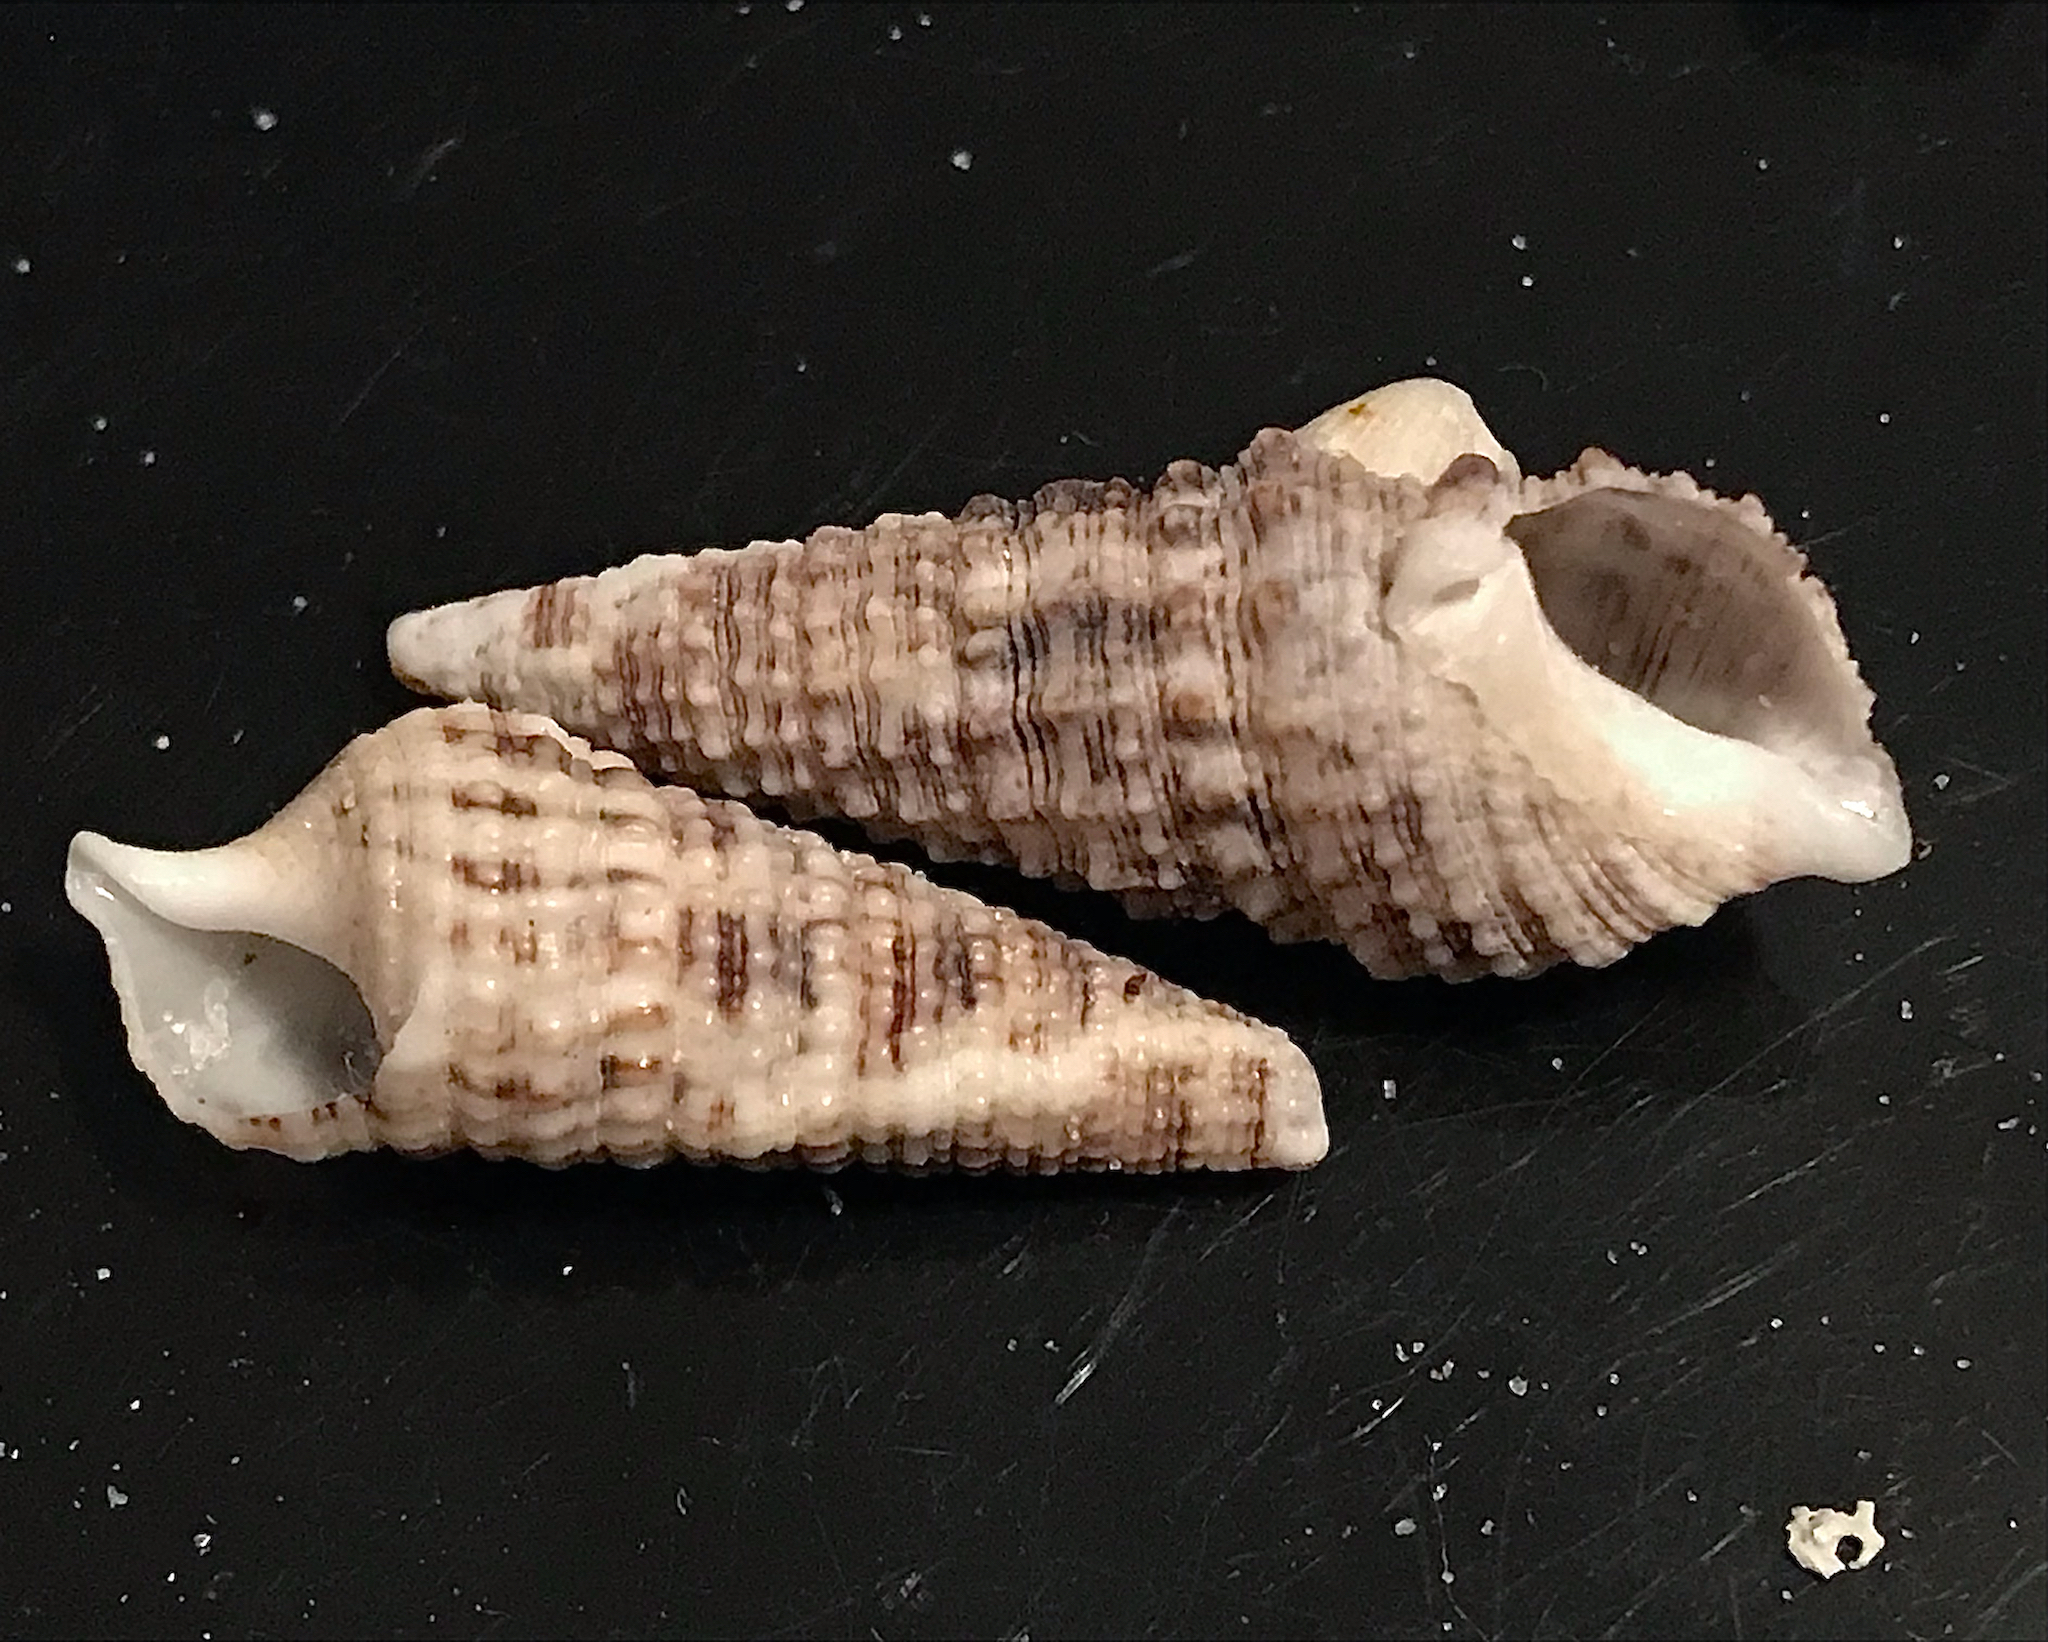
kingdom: Animalia
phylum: Mollusca
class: Gastropoda
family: Cerithiidae
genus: Cerithium
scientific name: Cerithium atratum
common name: Dark cerith
